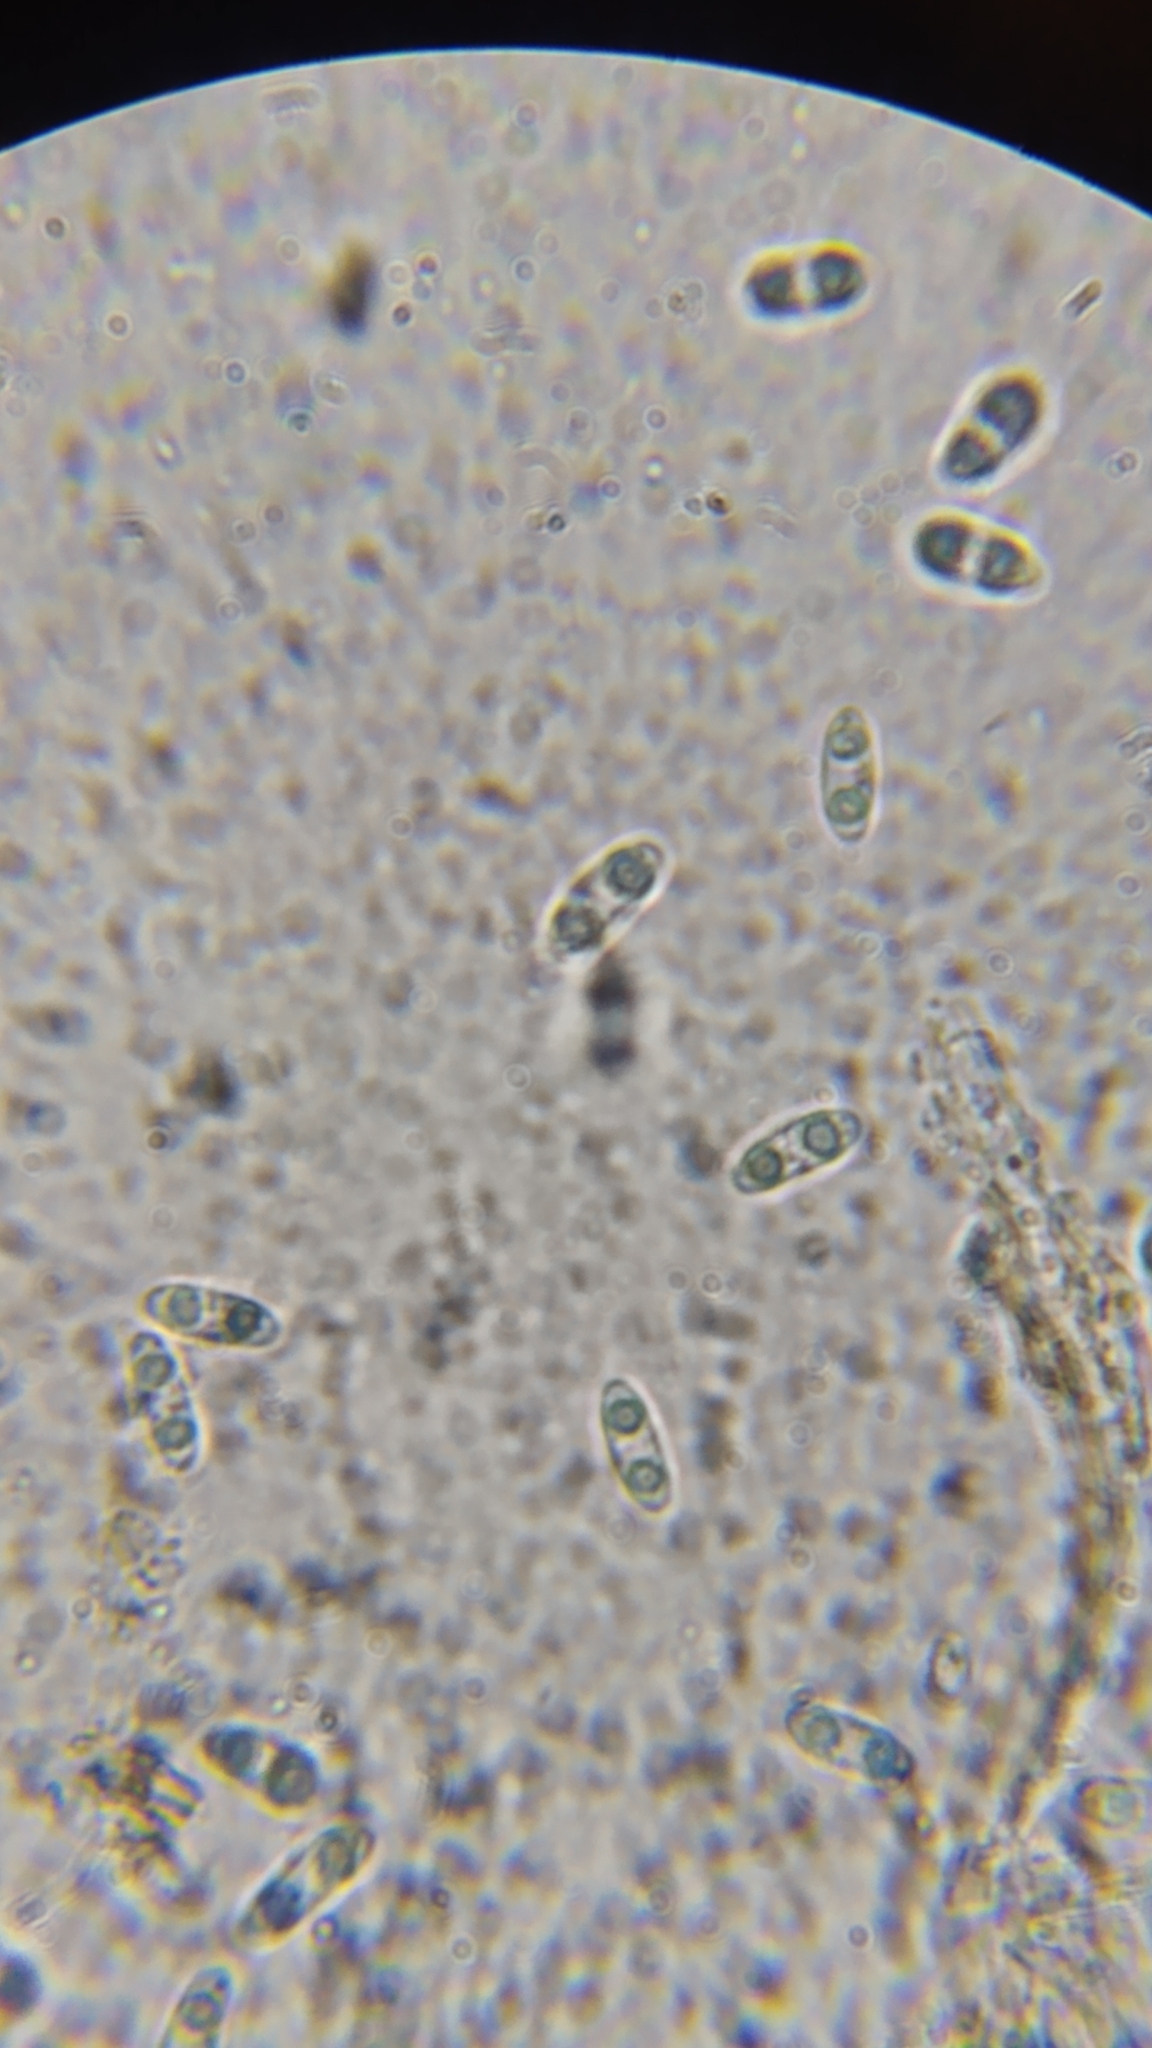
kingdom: Fungi
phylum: Ascomycota
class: Leotiomycetes
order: Helotiales
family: Cenangiaceae
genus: Chlorencoelia
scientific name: Chlorencoelia torta
